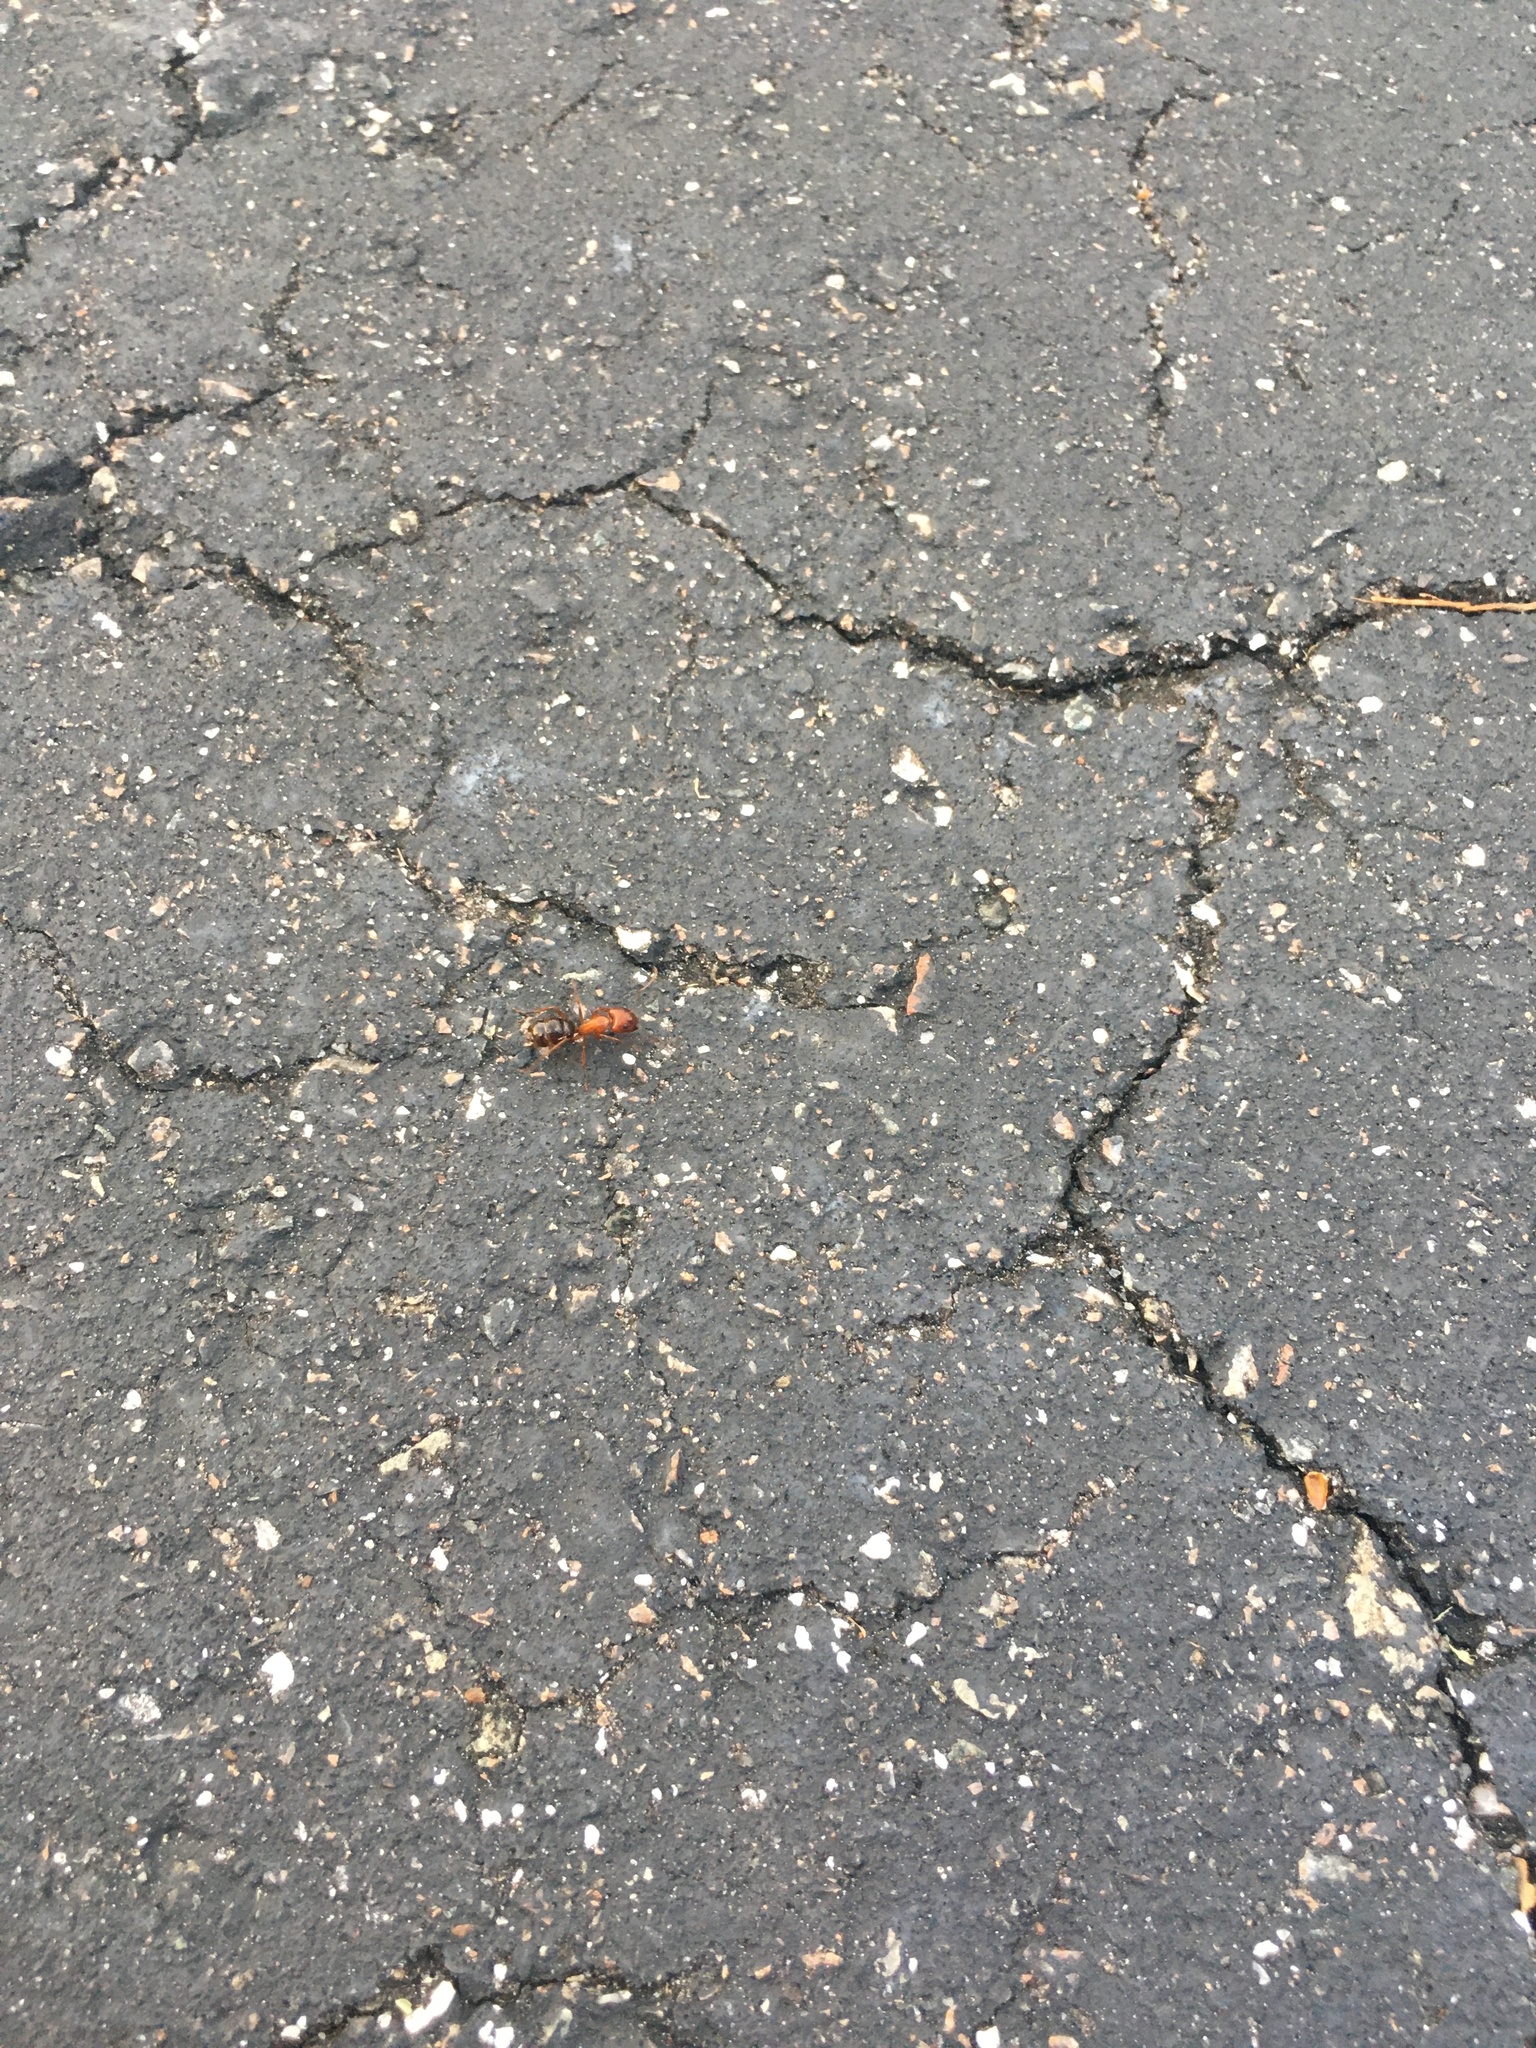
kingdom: Animalia
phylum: Arthropoda
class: Insecta
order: Hymenoptera
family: Formicidae
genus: Camponotus
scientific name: Camponotus floridanus
